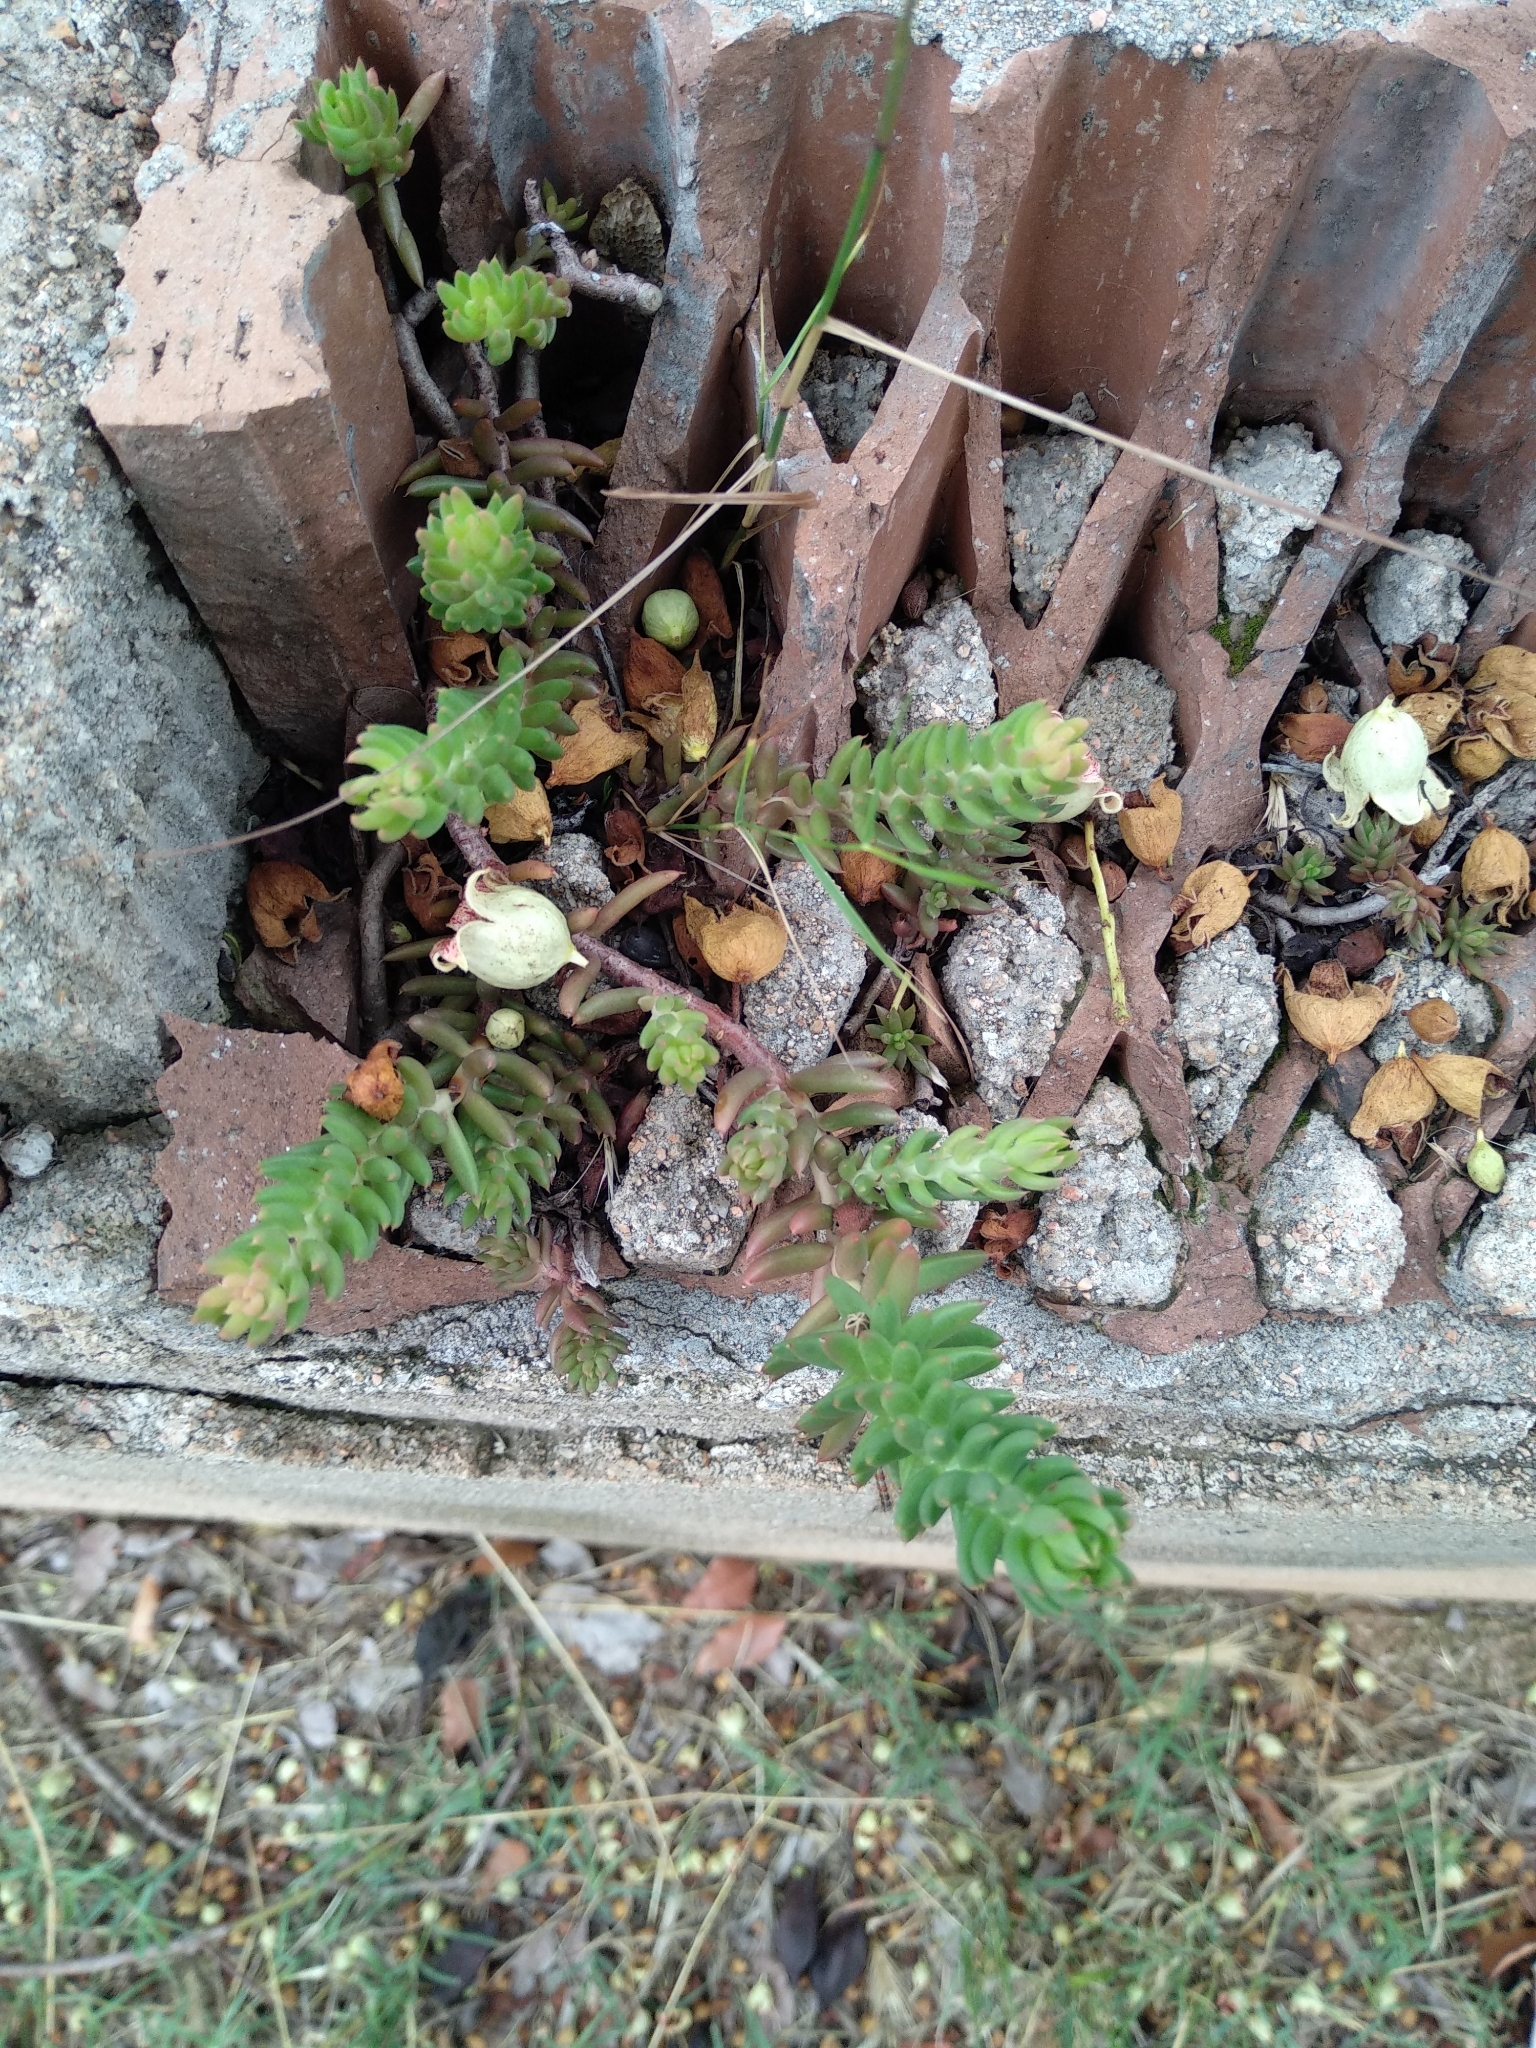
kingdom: Plantae
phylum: Tracheophyta
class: Magnoliopsida
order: Saxifragales
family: Crassulaceae
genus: Petrosedum
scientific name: Petrosedum rupestre
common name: Jenny's stonecrop
